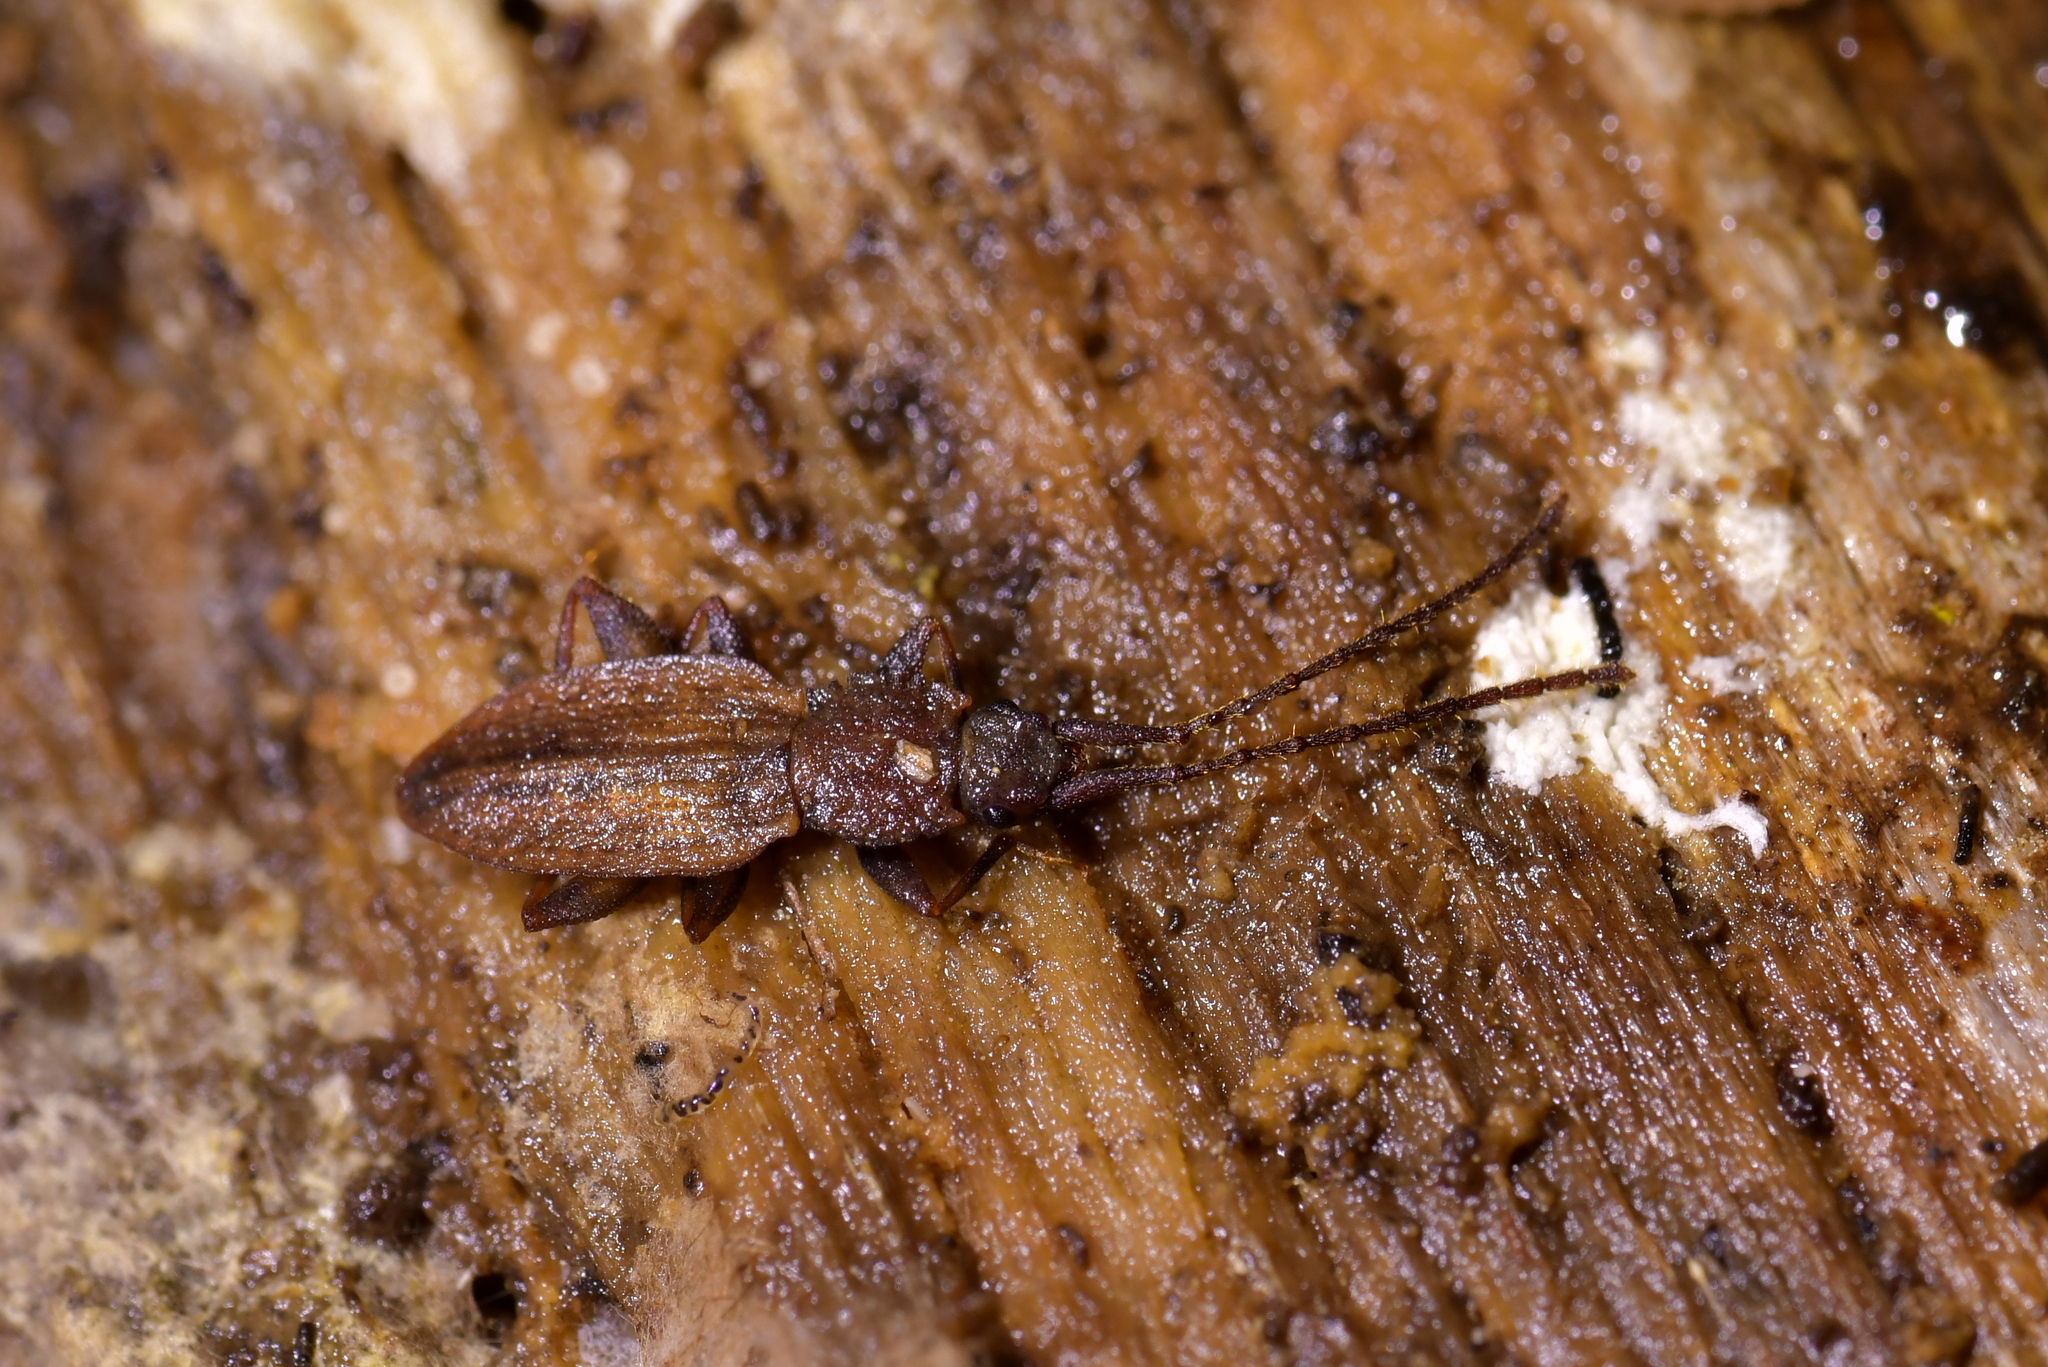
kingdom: Animalia
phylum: Arthropoda
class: Insecta
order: Coleoptera
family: Silvanidae
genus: Brontopriscus
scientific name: Brontopriscus
